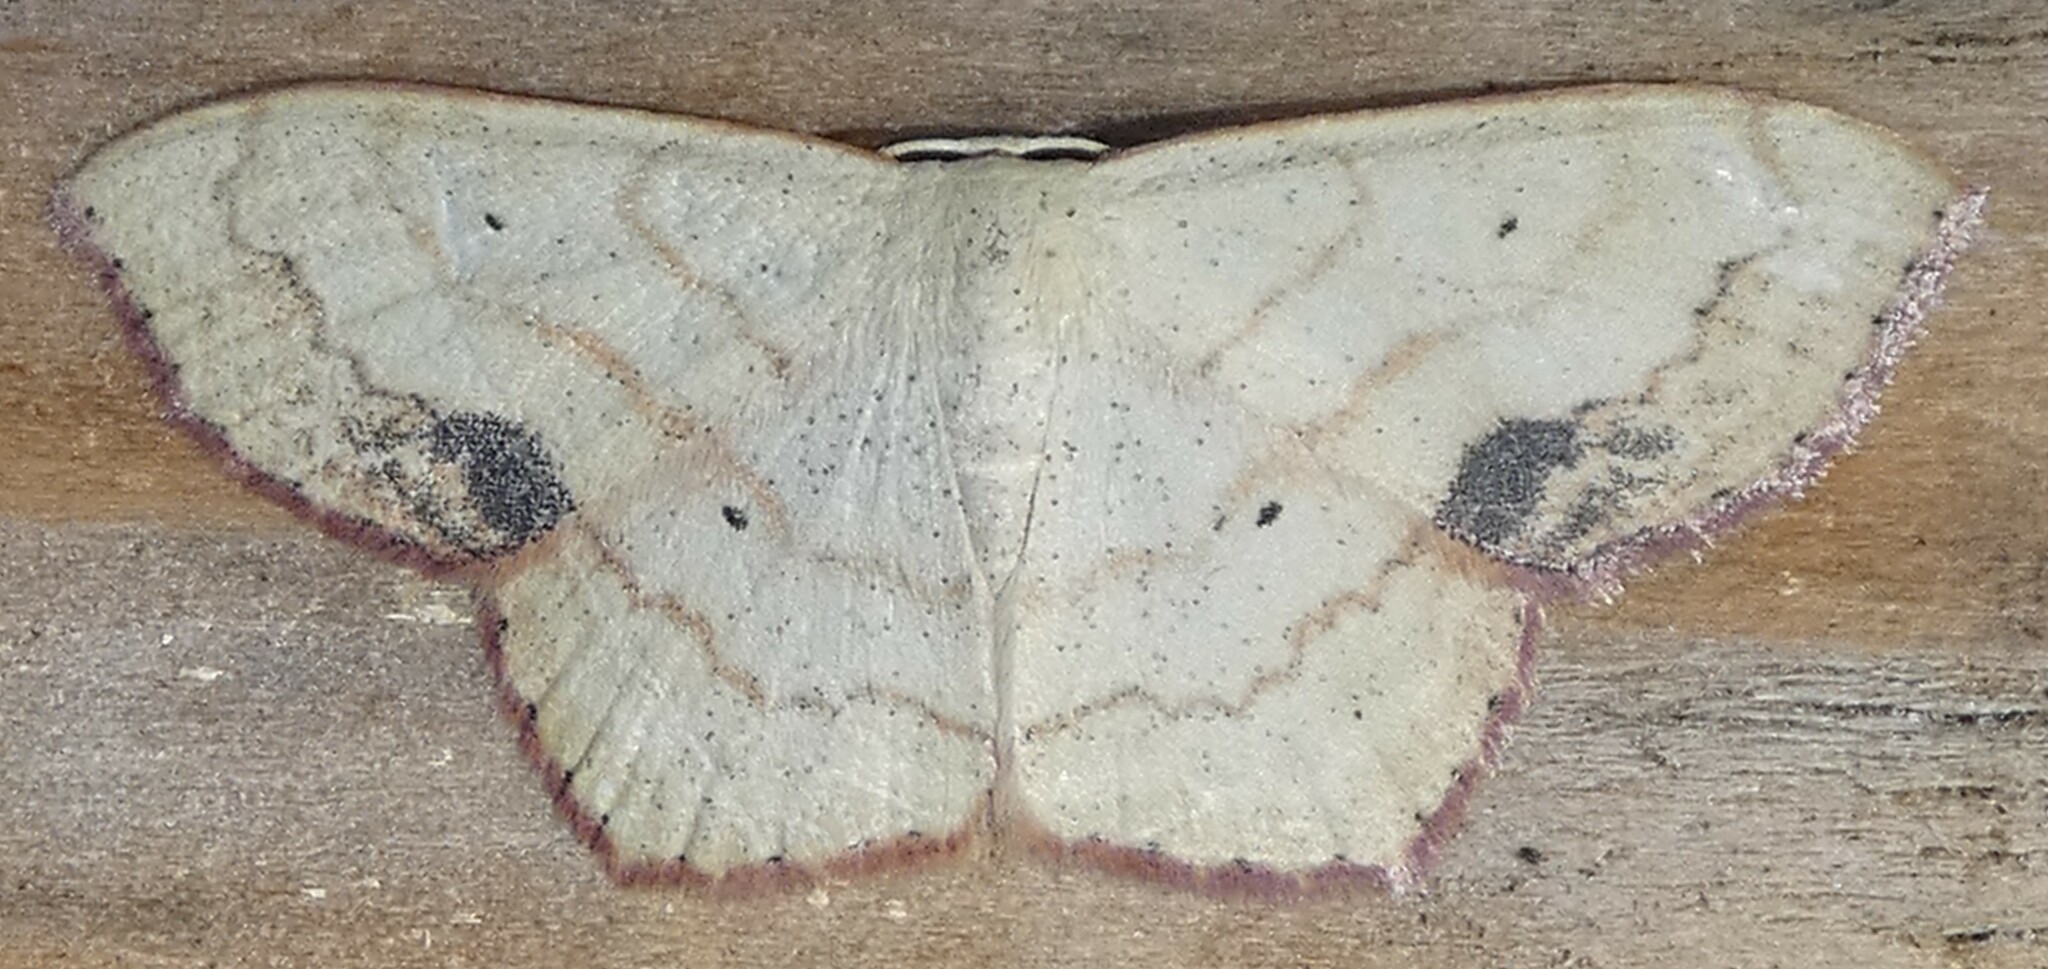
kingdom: Animalia
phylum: Arthropoda
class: Insecta
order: Lepidoptera
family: Geometridae
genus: Scopula
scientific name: Scopula limboundata
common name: Large lace border
